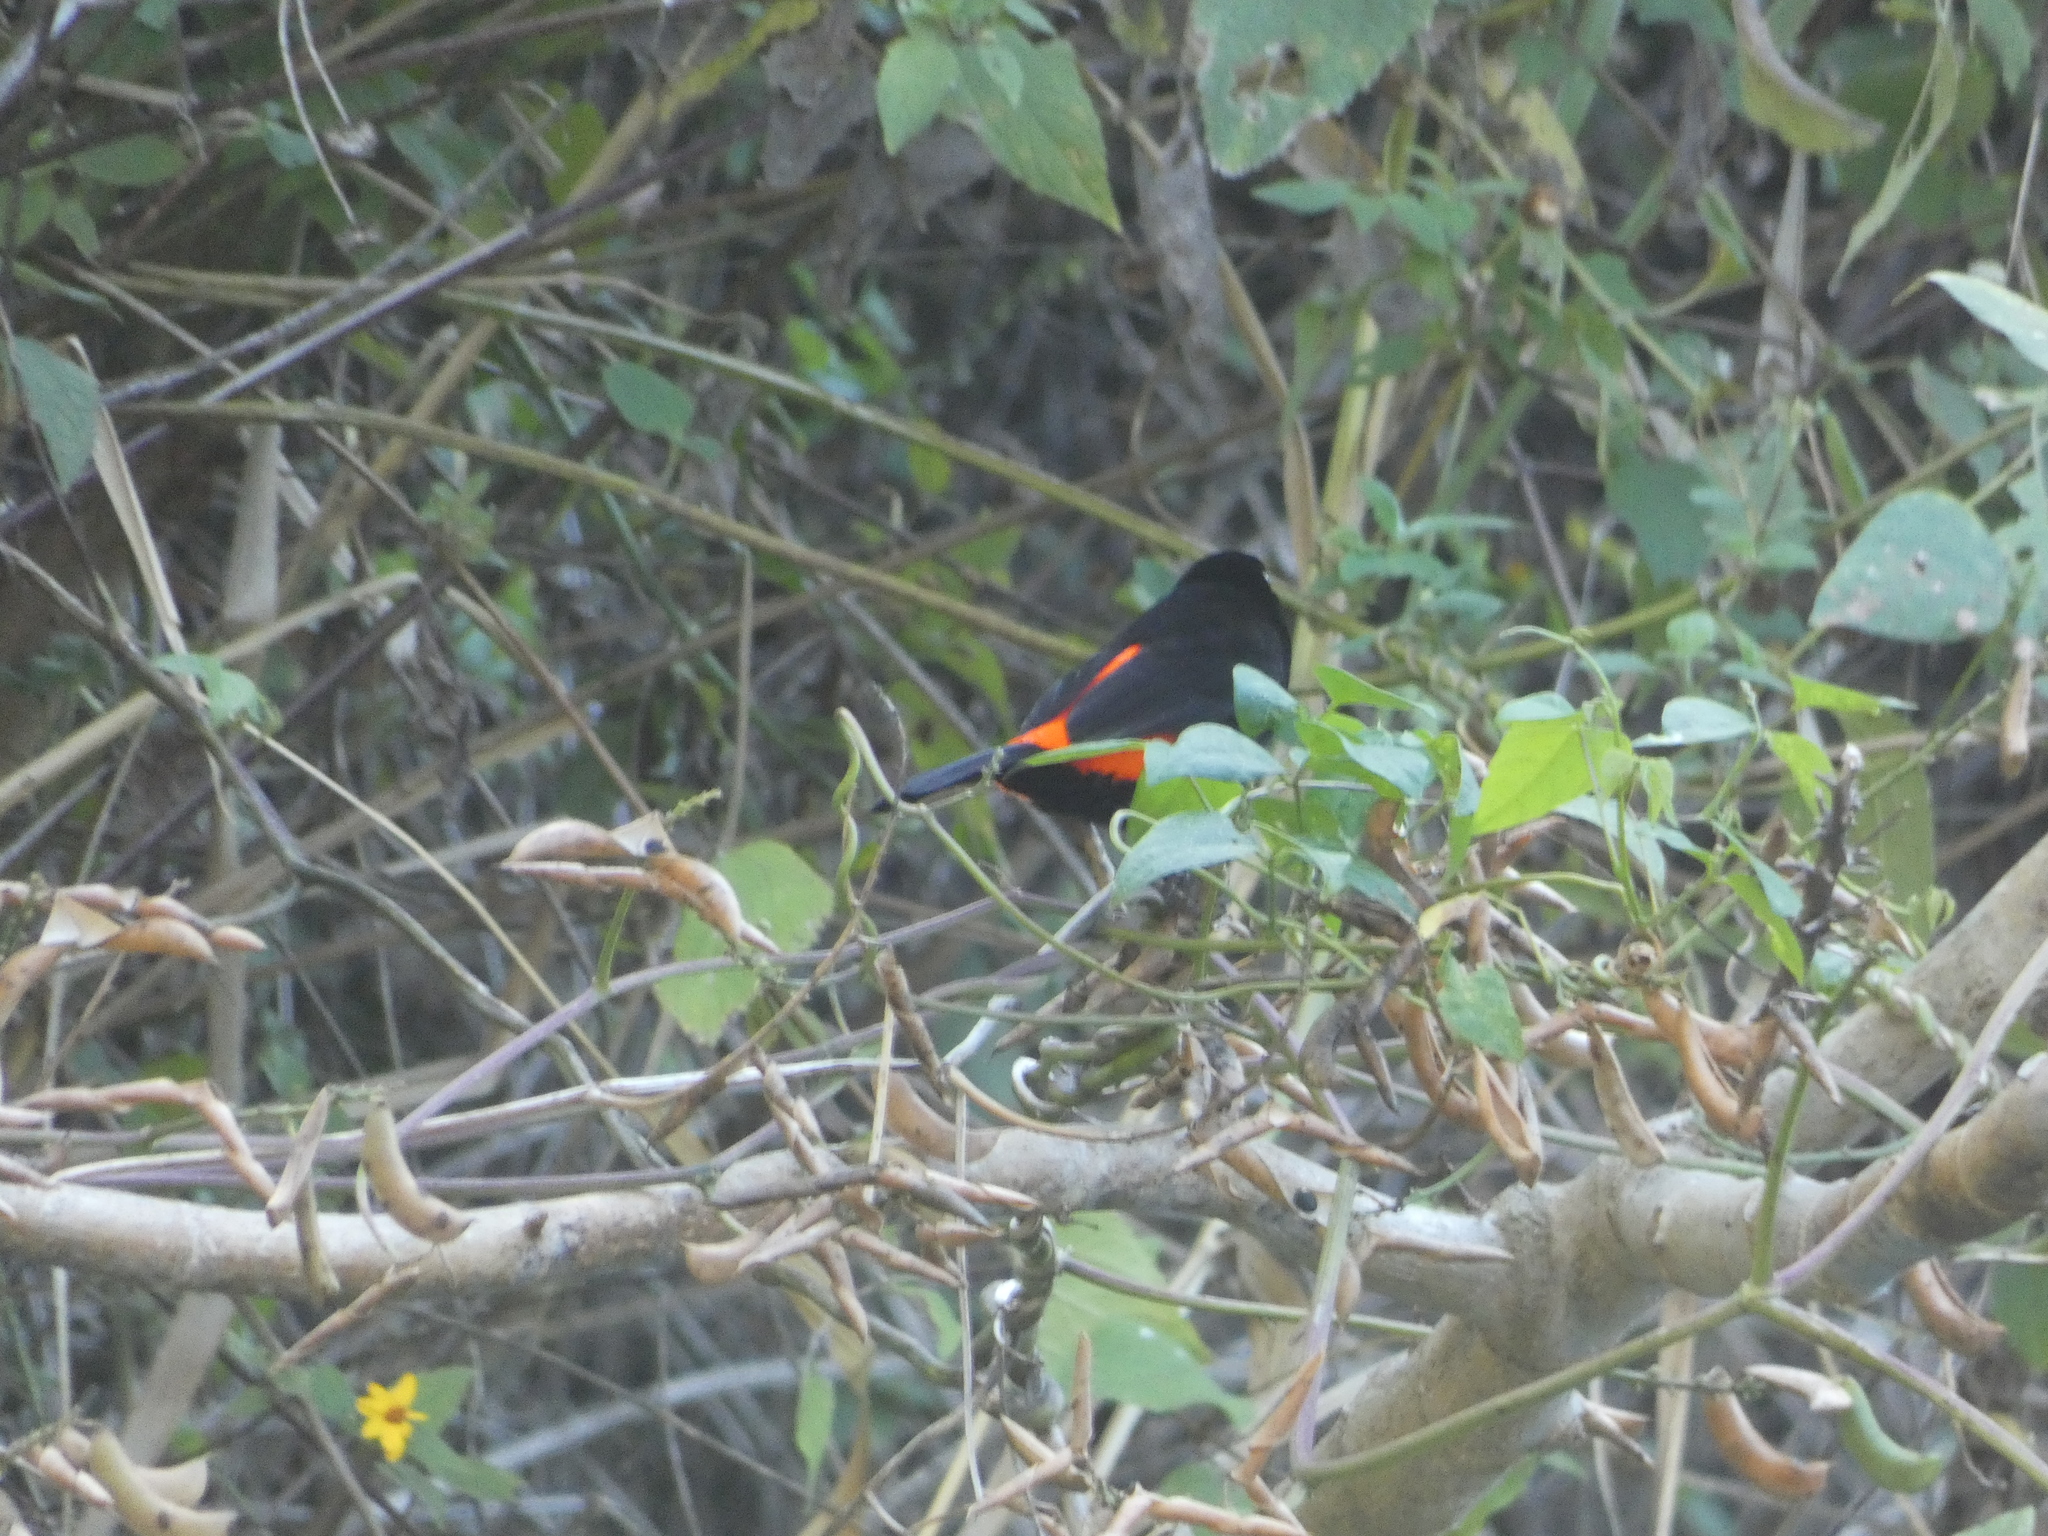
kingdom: Animalia
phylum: Chordata
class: Aves
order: Passeriformes
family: Thraupidae
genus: Ramphocelus
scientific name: Ramphocelus passerinii
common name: Passerini's tanager
